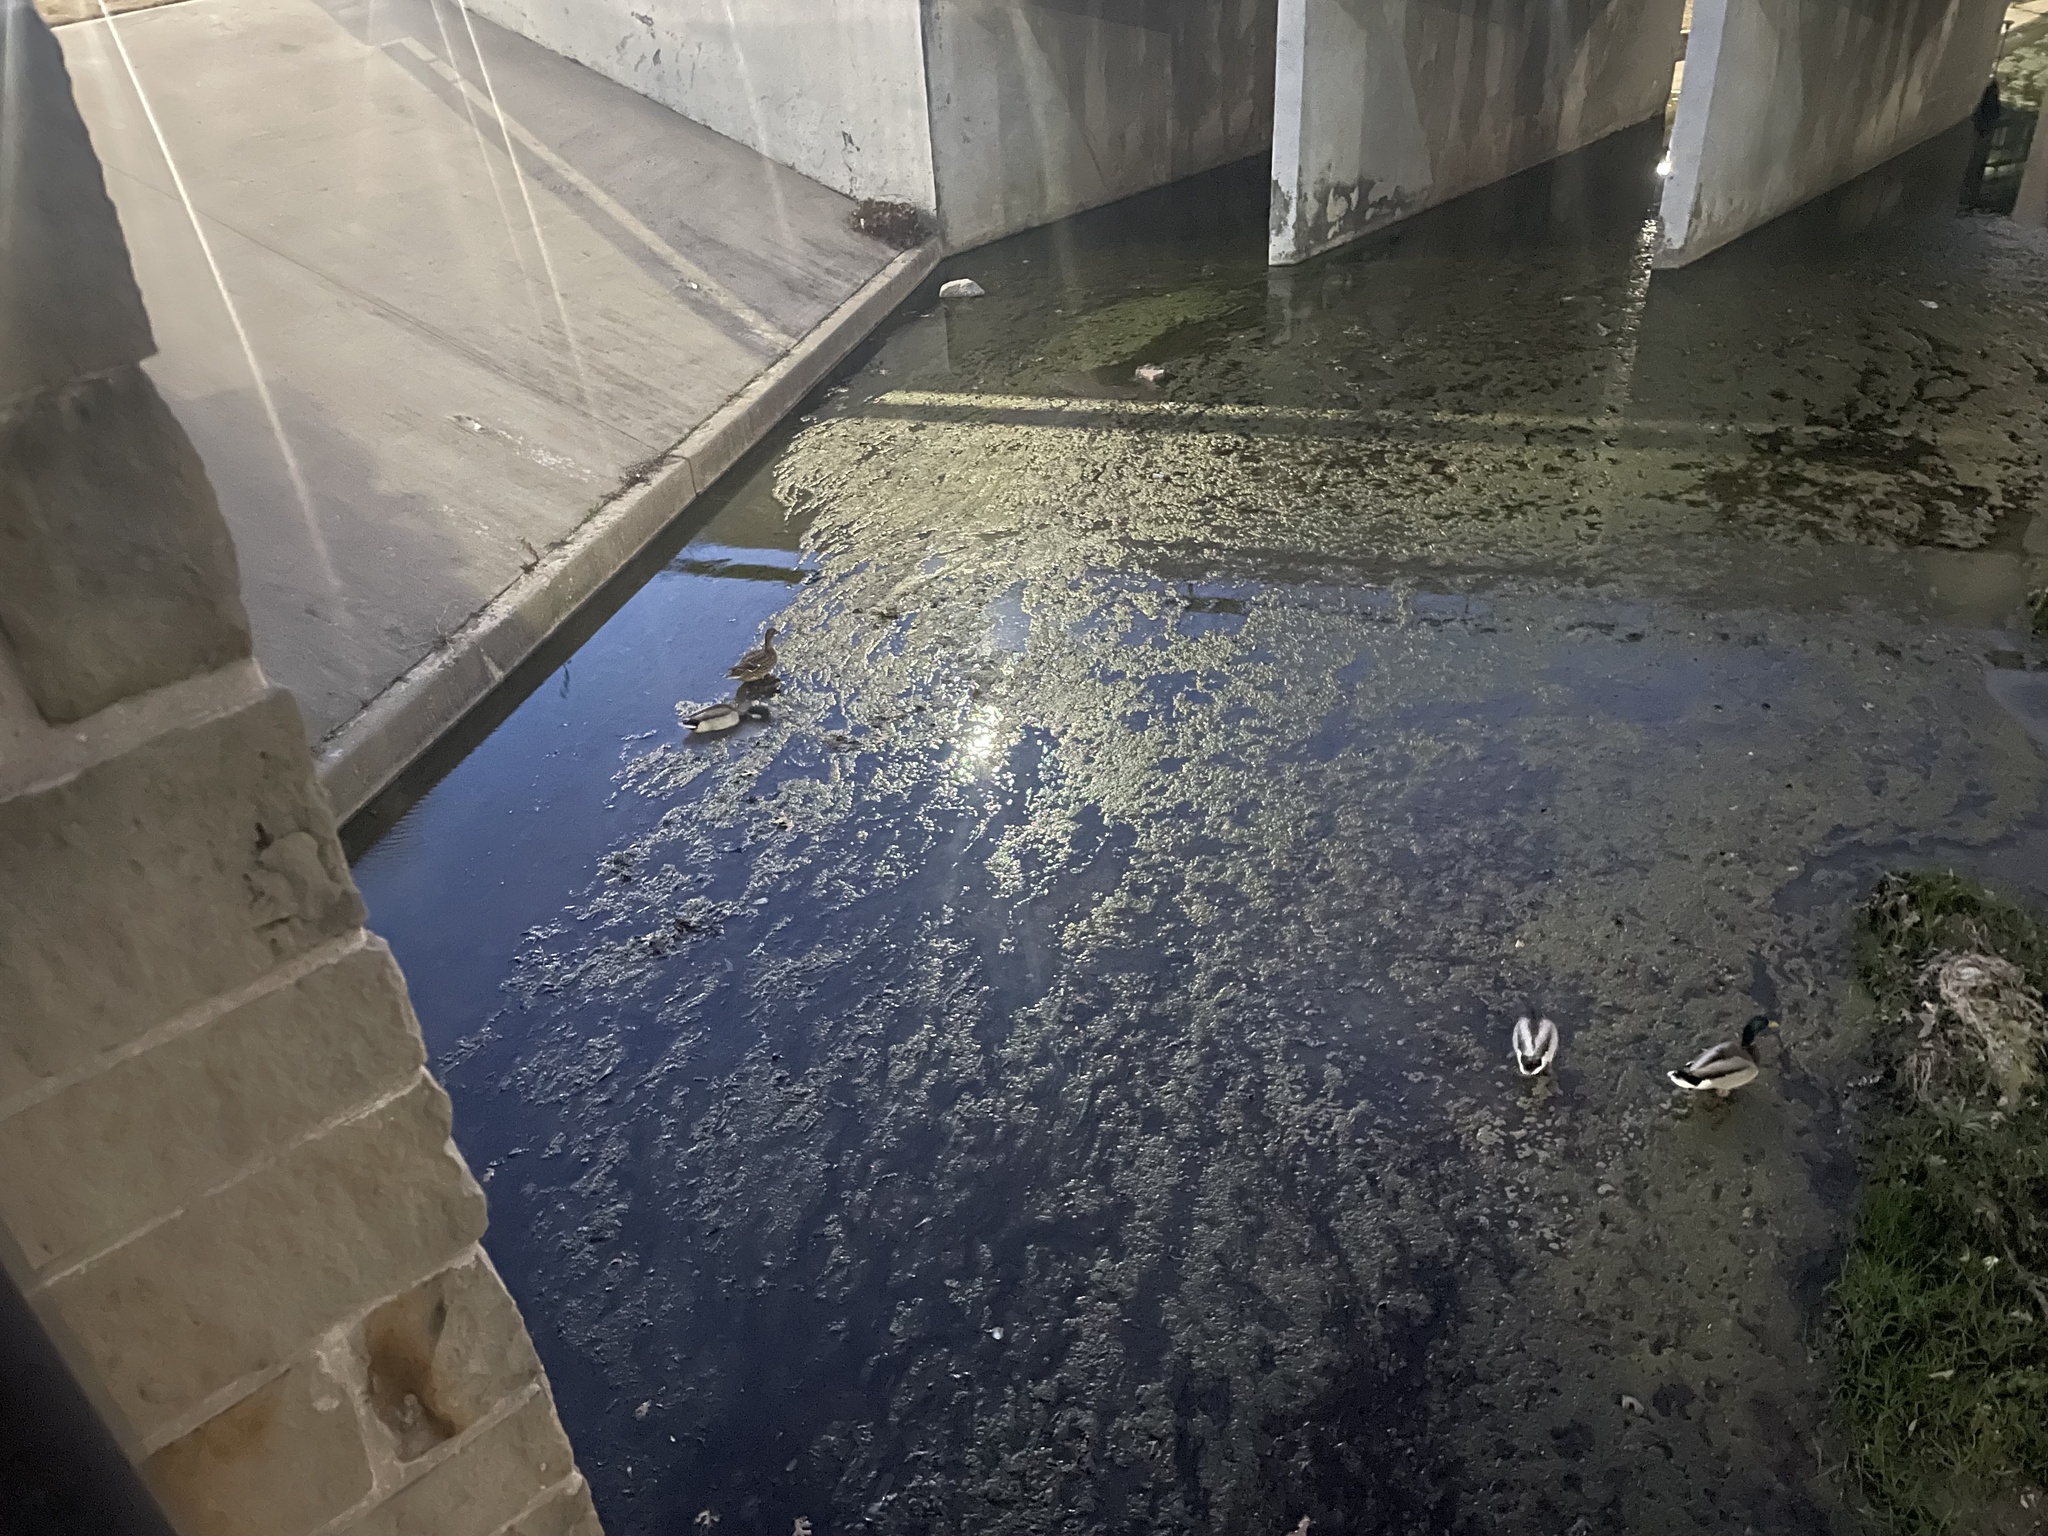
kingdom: Animalia
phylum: Chordata
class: Aves
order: Anseriformes
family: Anatidae
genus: Anas
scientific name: Anas platyrhynchos
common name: Mallard
